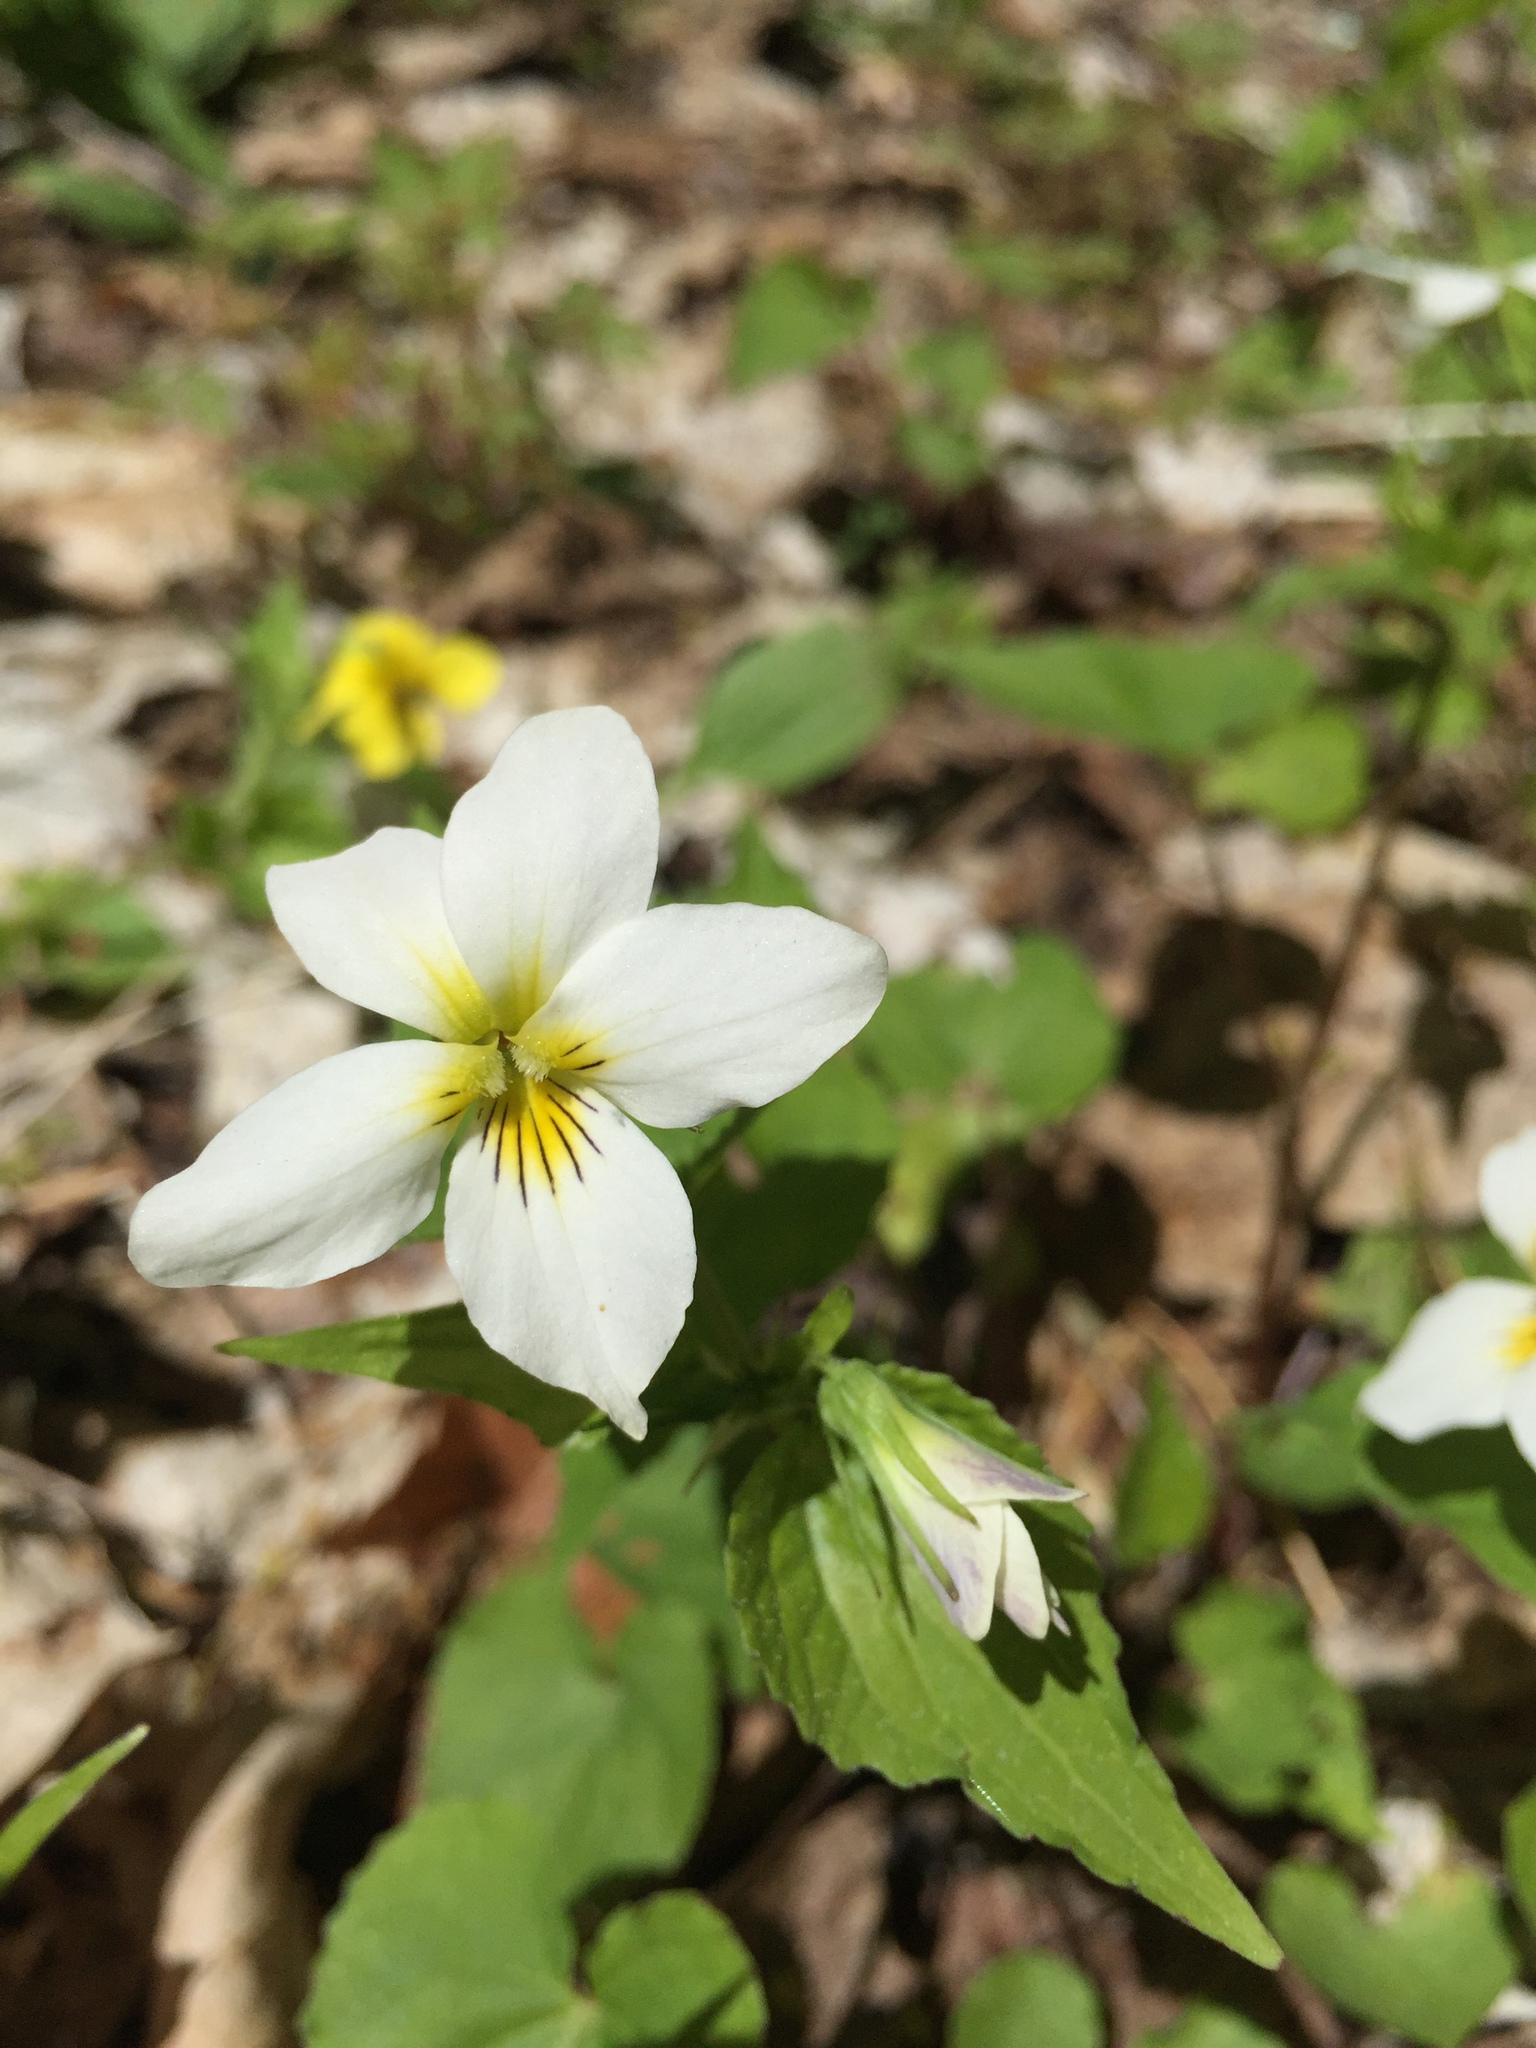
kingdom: Plantae
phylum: Tracheophyta
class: Magnoliopsida
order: Malpighiales
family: Violaceae
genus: Viola
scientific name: Viola canadensis
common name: Canada violet
